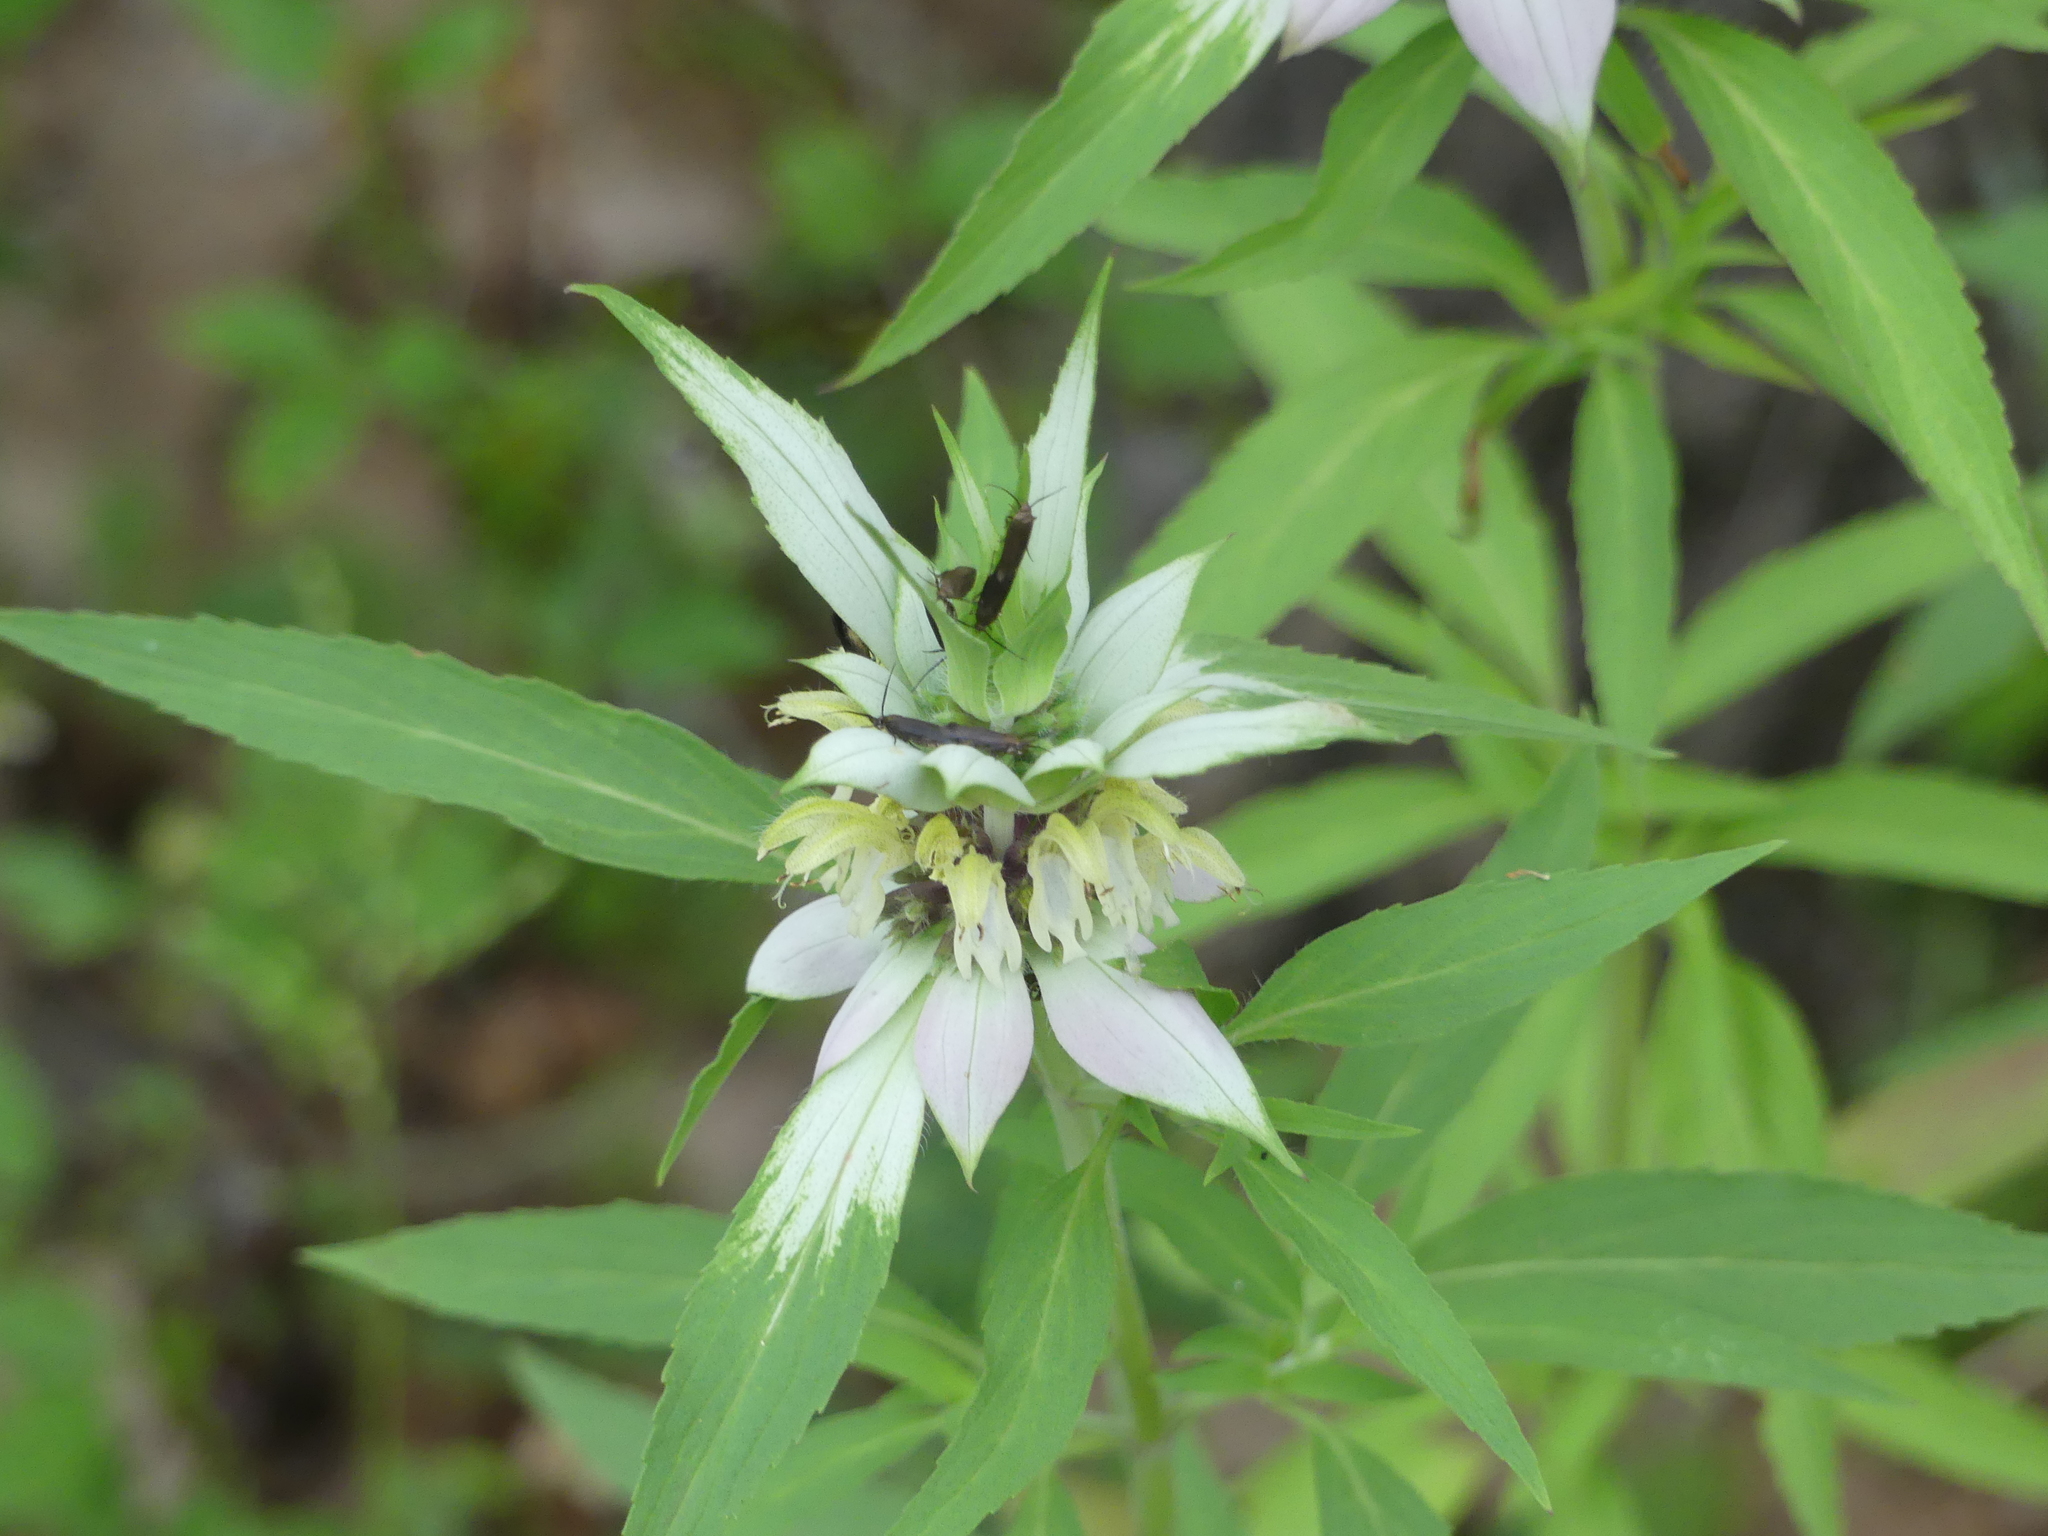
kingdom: Plantae
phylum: Tracheophyta
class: Magnoliopsida
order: Lamiales
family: Lamiaceae
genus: Monarda
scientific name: Monarda punctata
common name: Dotted monarda
